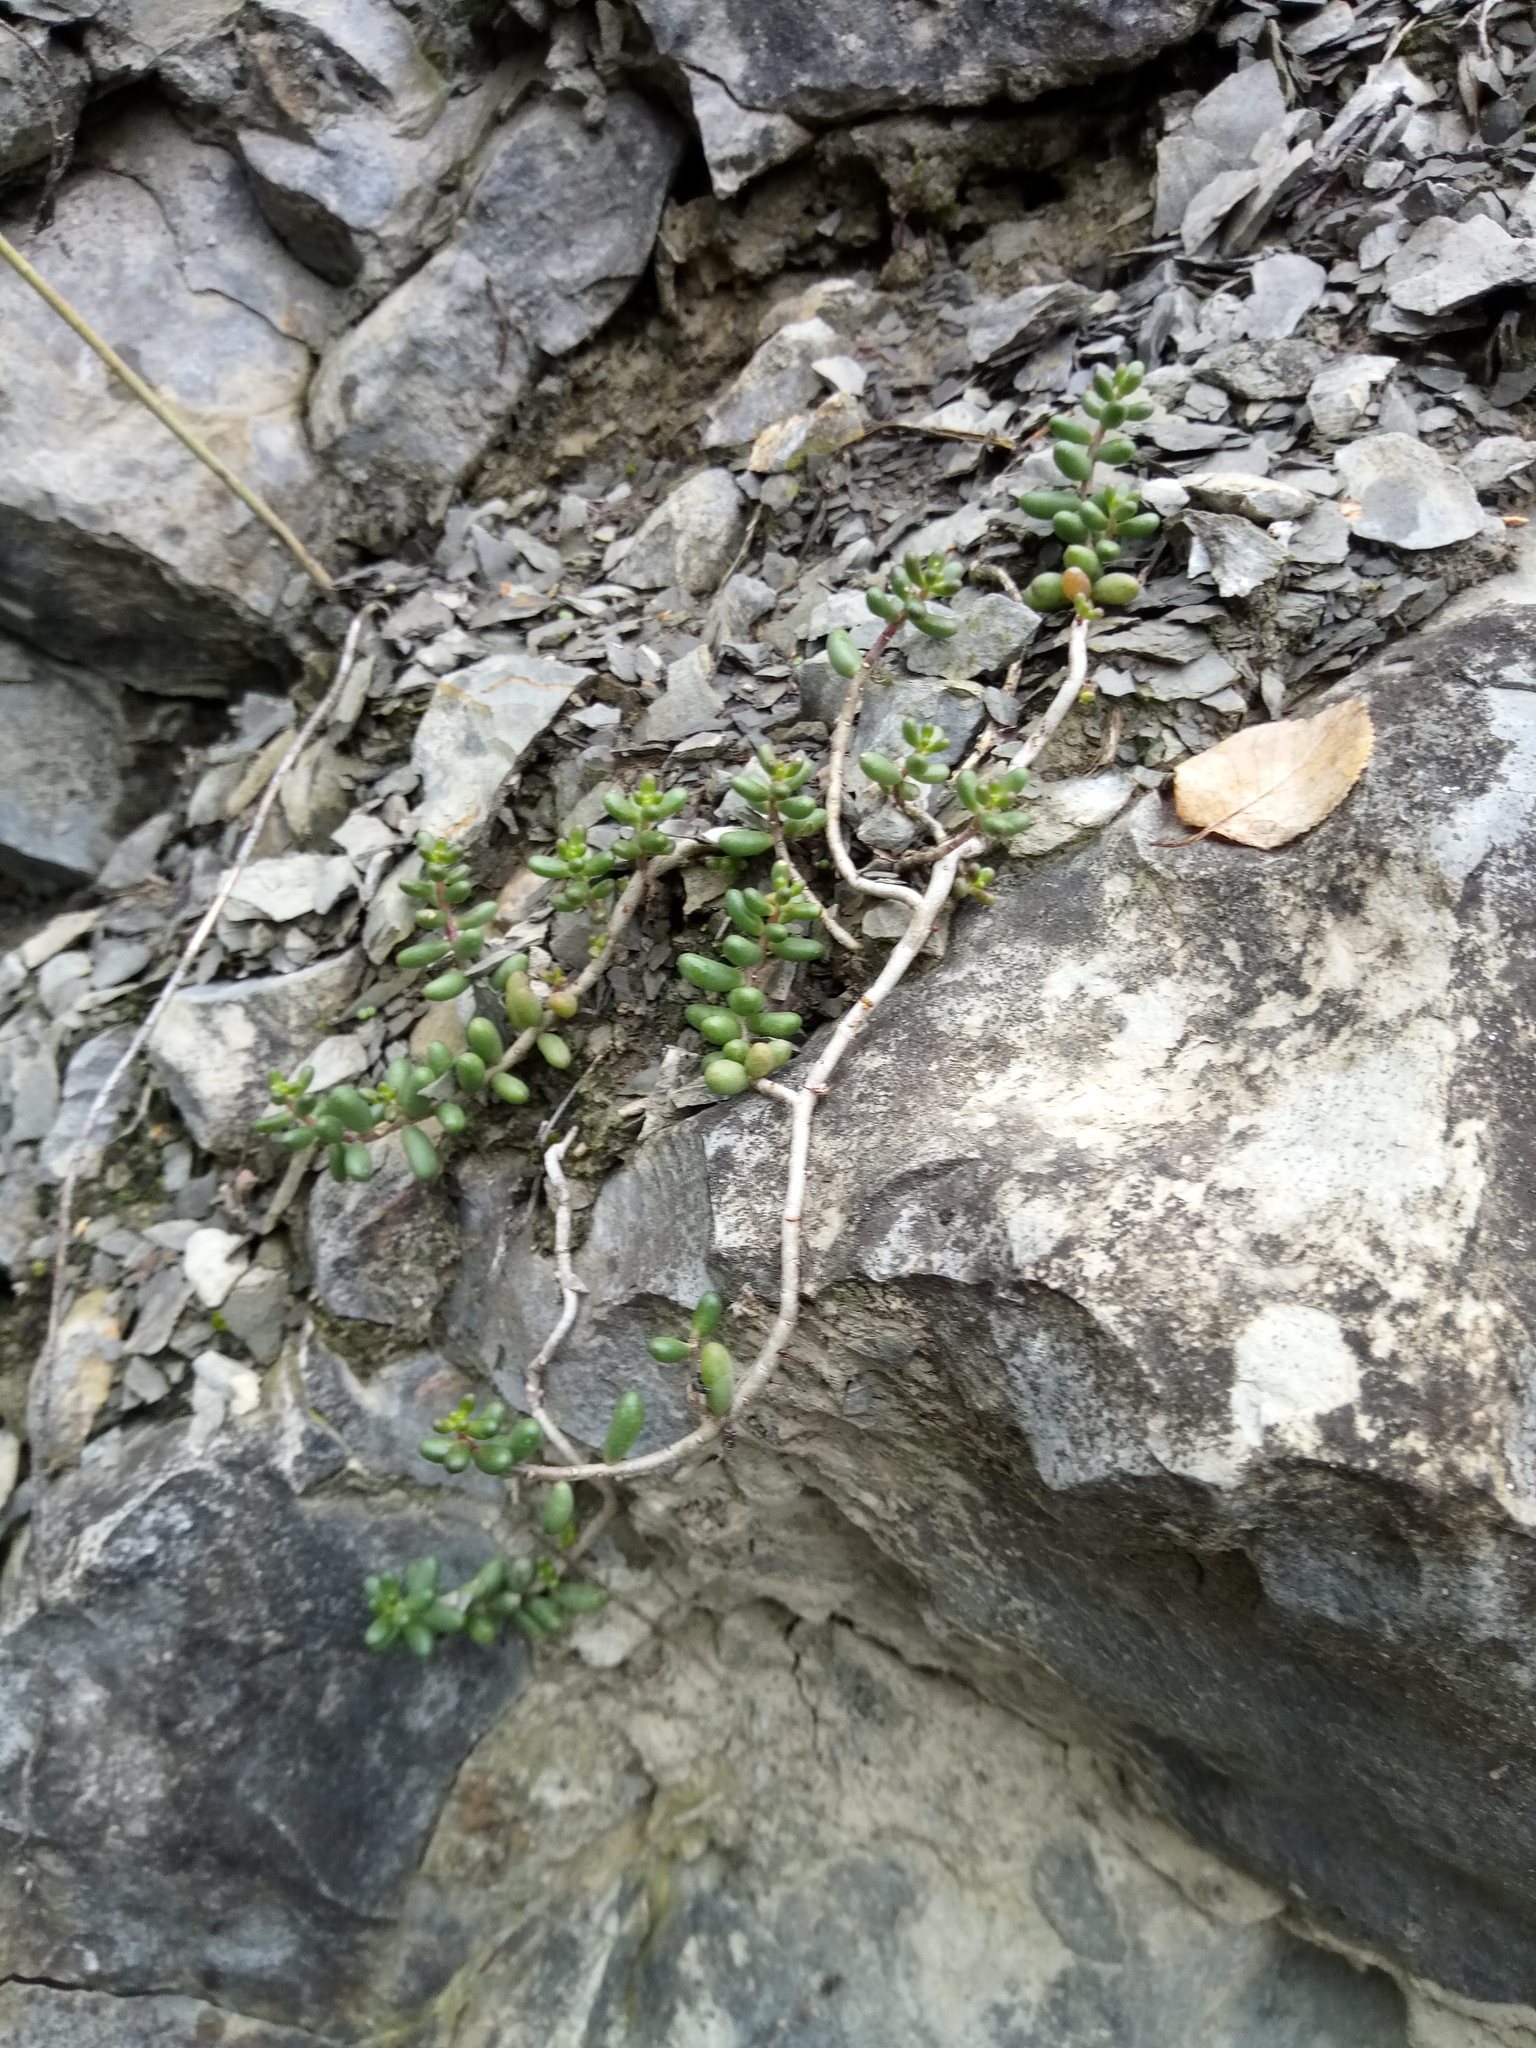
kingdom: Plantae
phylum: Tracheophyta
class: Magnoliopsida
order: Saxifragales
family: Crassulaceae
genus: Sedum
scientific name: Sedum album
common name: White stonecrop
